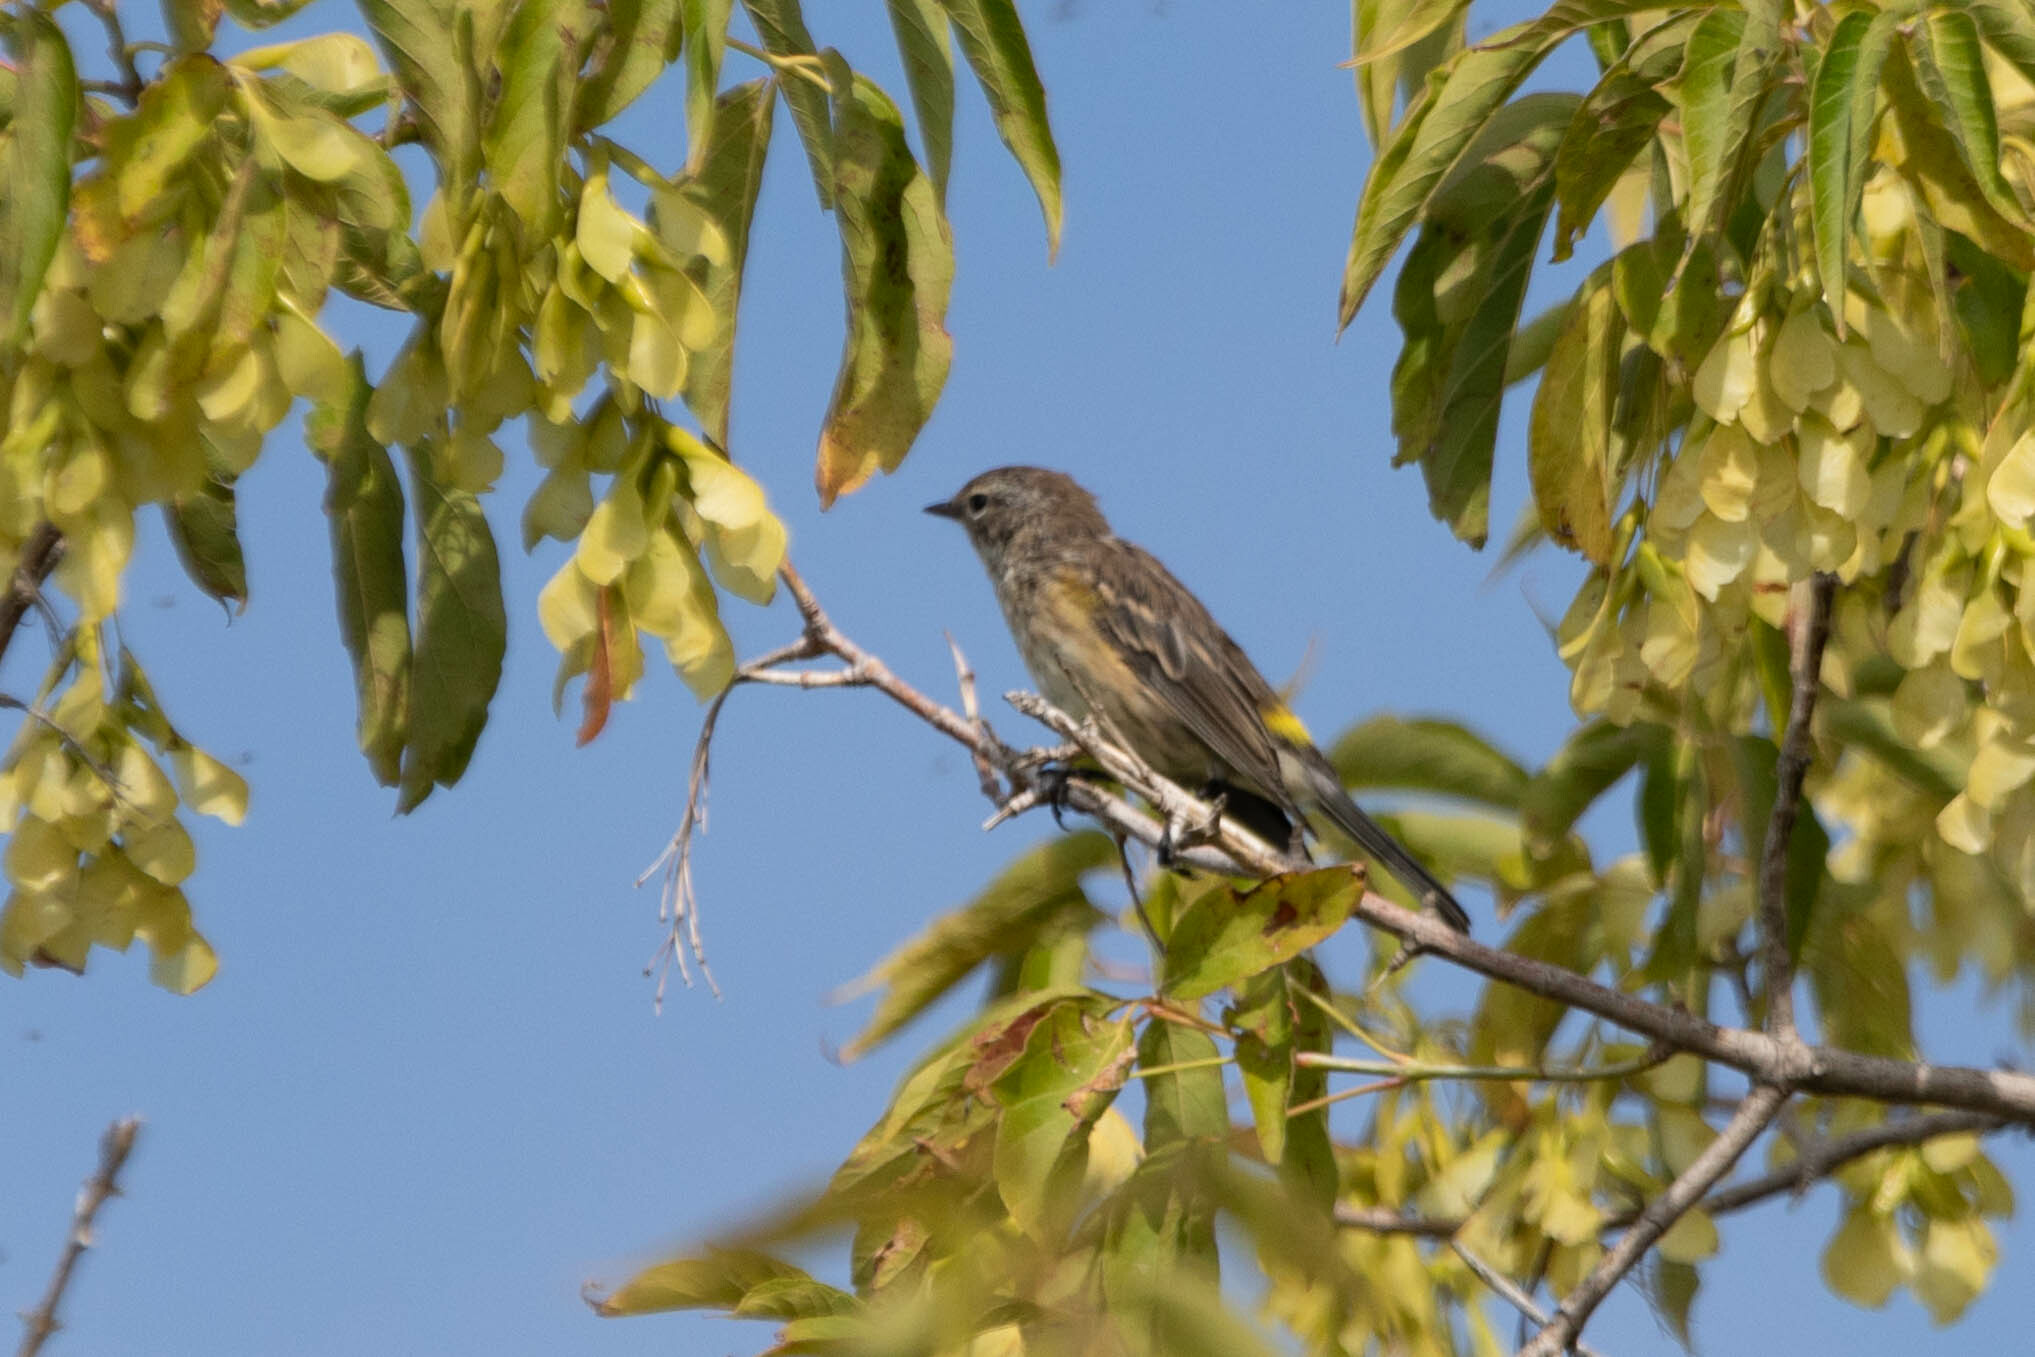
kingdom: Animalia
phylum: Chordata
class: Aves
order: Passeriformes
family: Parulidae
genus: Setophaga
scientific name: Setophaga coronata
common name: Myrtle warbler
